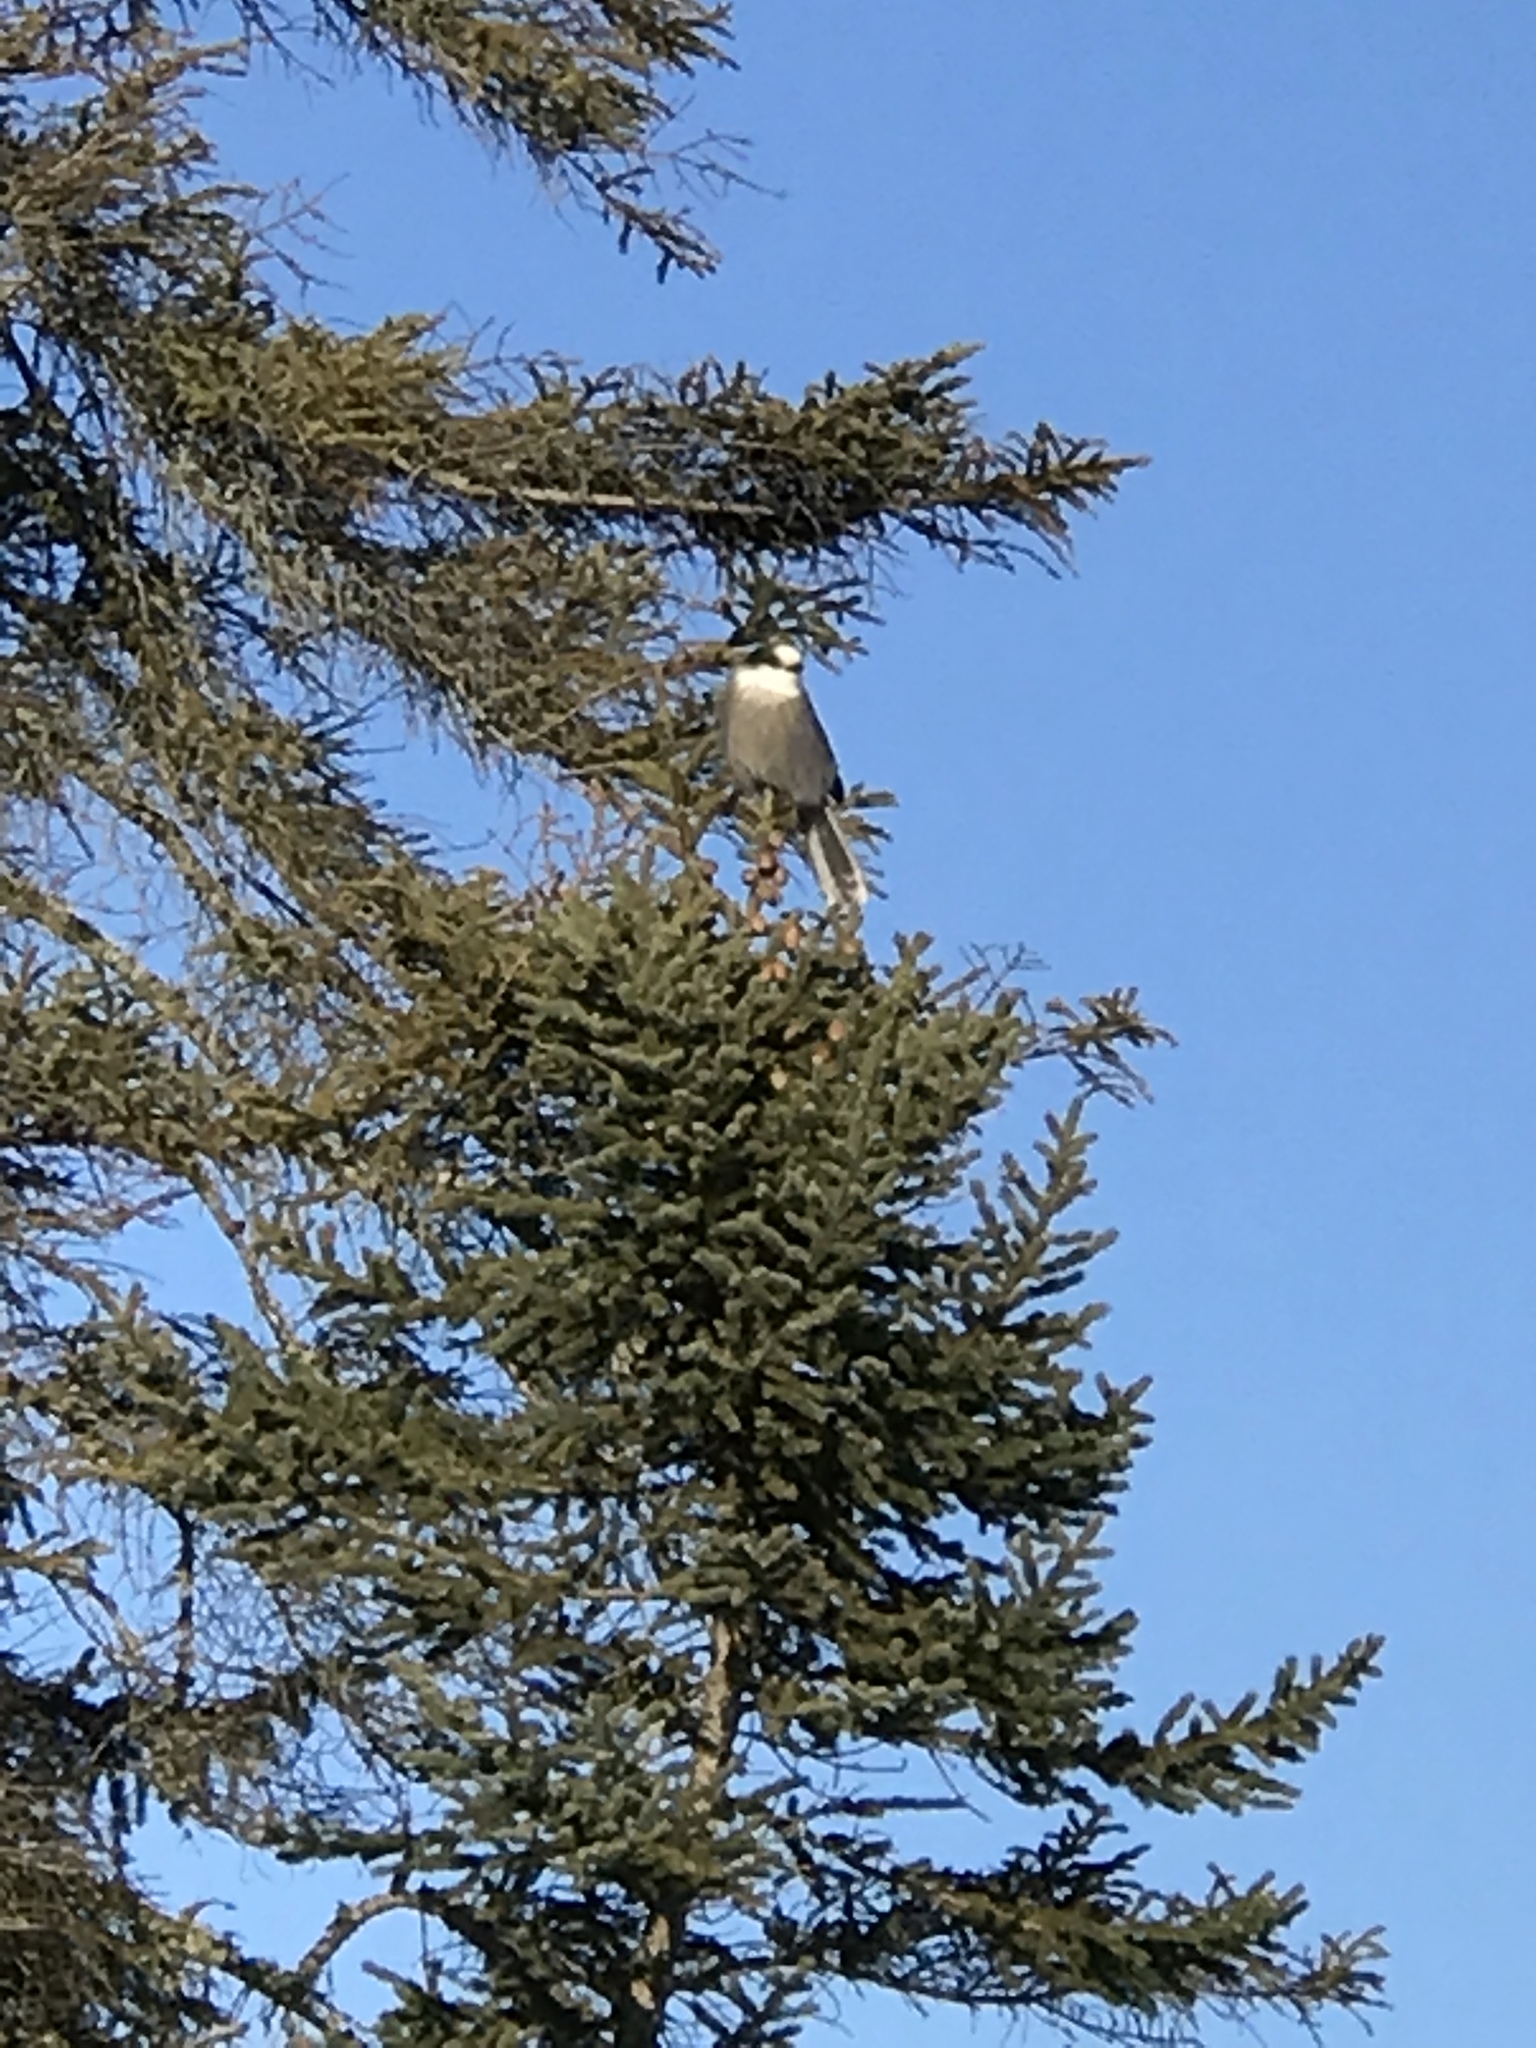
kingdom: Animalia
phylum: Chordata
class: Aves
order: Passeriformes
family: Corvidae
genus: Perisoreus
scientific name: Perisoreus canadensis
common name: Gray jay
